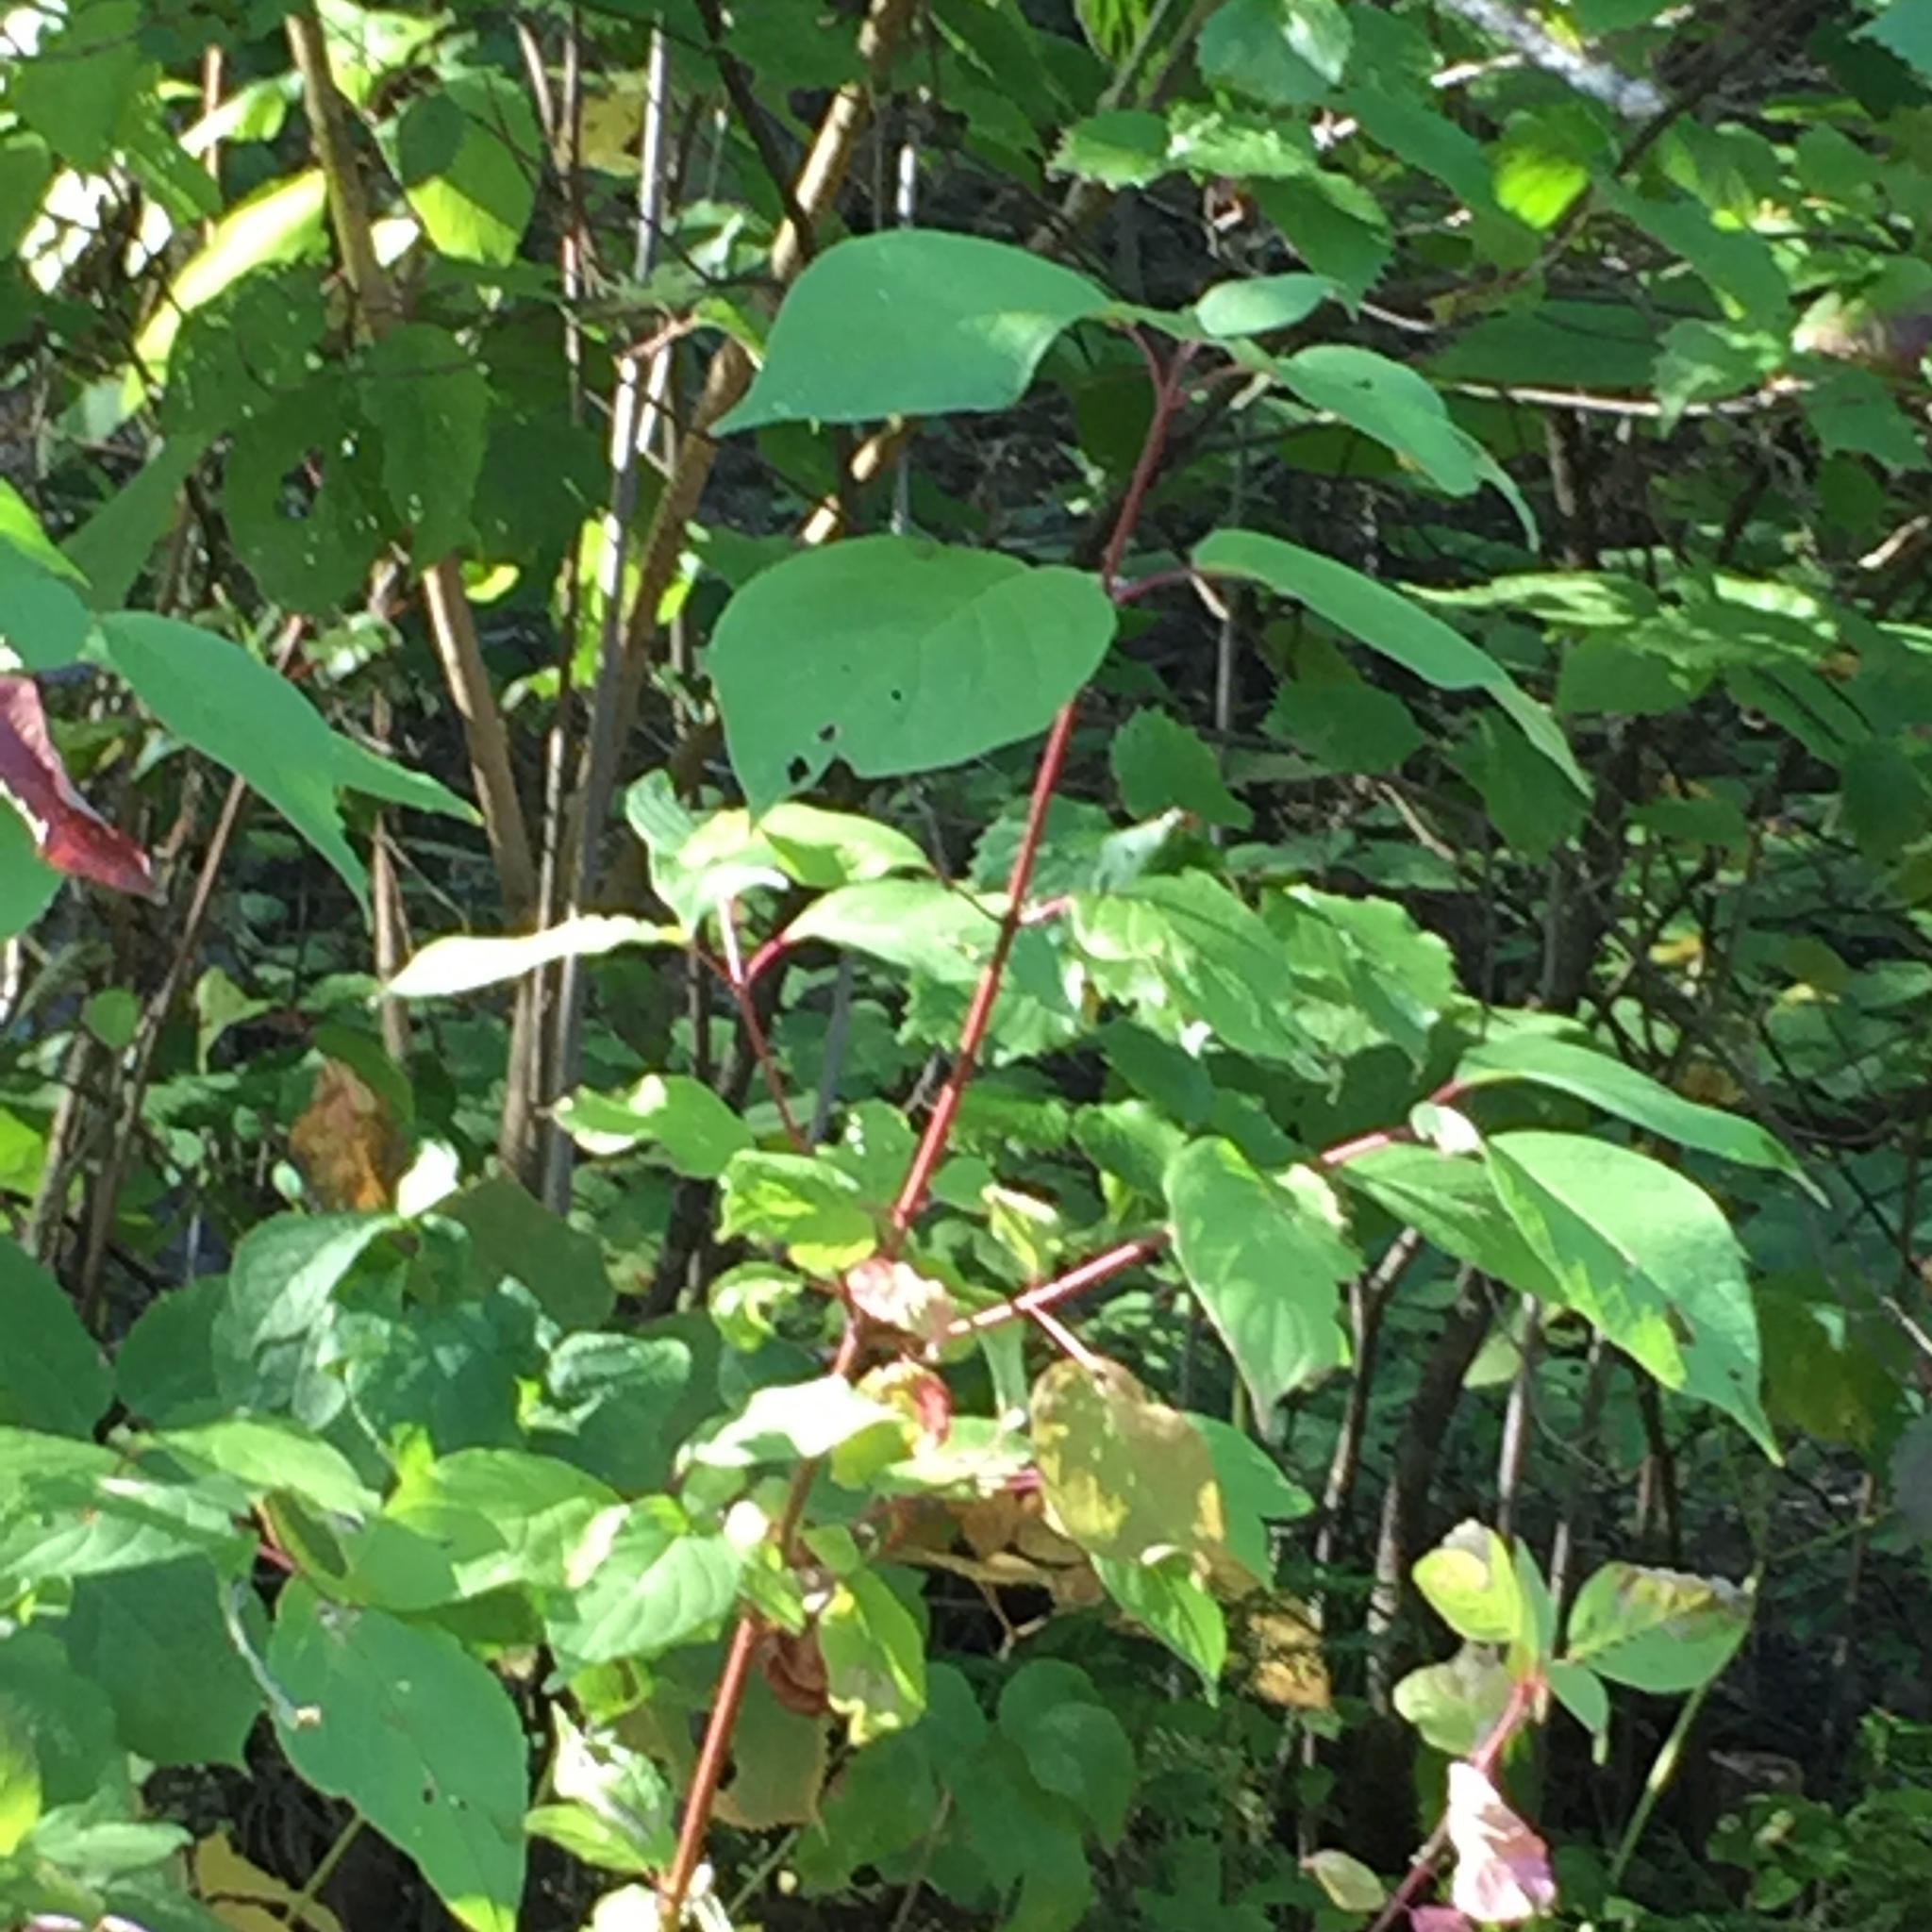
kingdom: Plantae
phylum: Tracheophyta
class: Magnoliopsida
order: Cornales
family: Cornaceae
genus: Cornus
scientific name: Cornus sericea
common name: Red-osier dogwood
